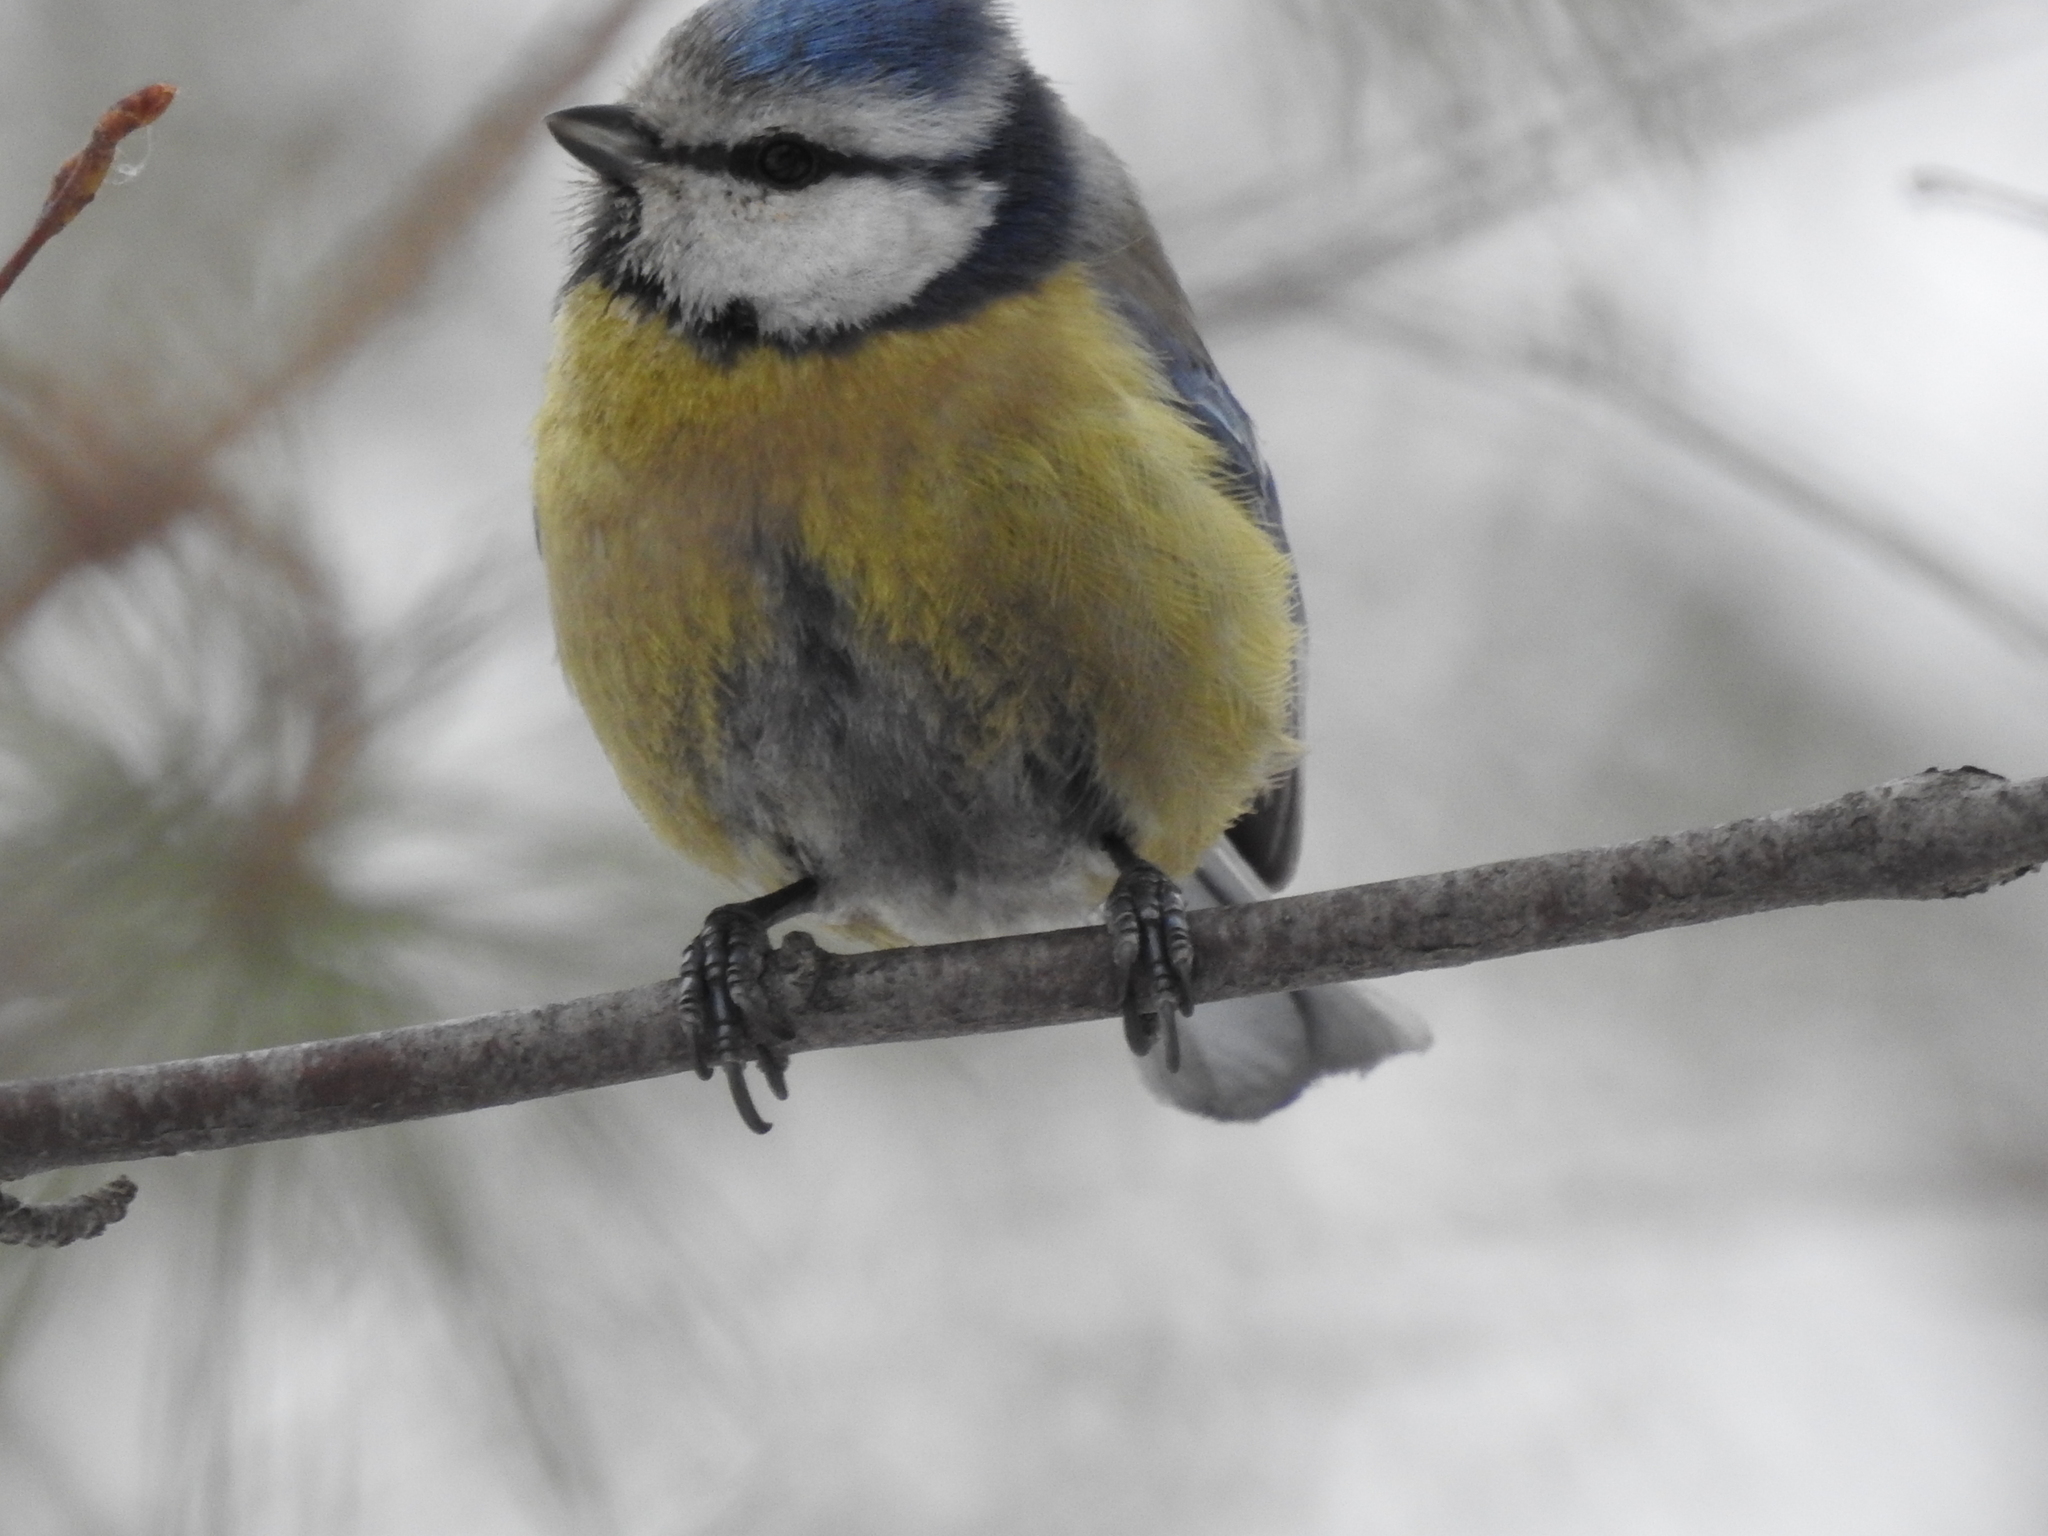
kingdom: Animalia
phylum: Chordata
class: Aves
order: Passeriformes
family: Paridae
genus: Cyanistes
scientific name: Cyanistes caeruleus
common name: Eurasian blue tit
